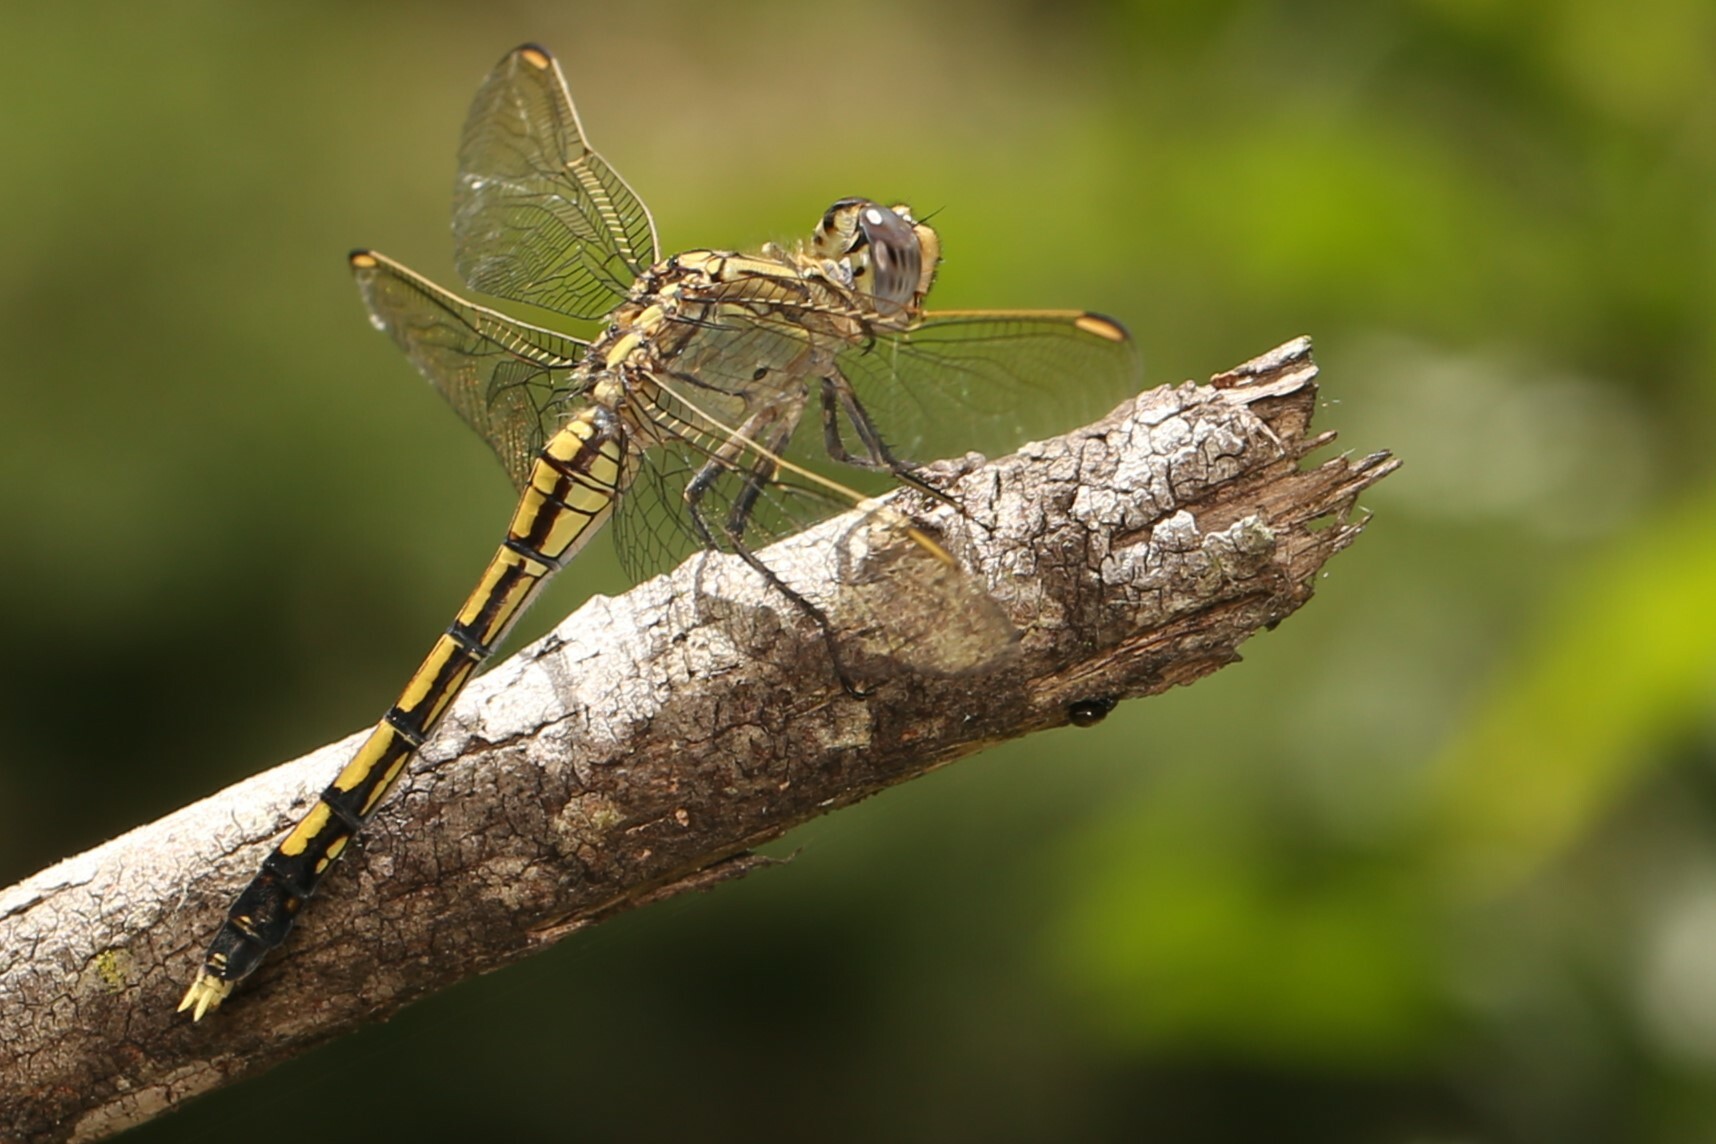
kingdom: Animalia
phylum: Arthropoda
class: Insecta
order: Odonata
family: Libellulidae
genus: Orthetrum
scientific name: Orthetrum caledonicum
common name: Blue skimmer
